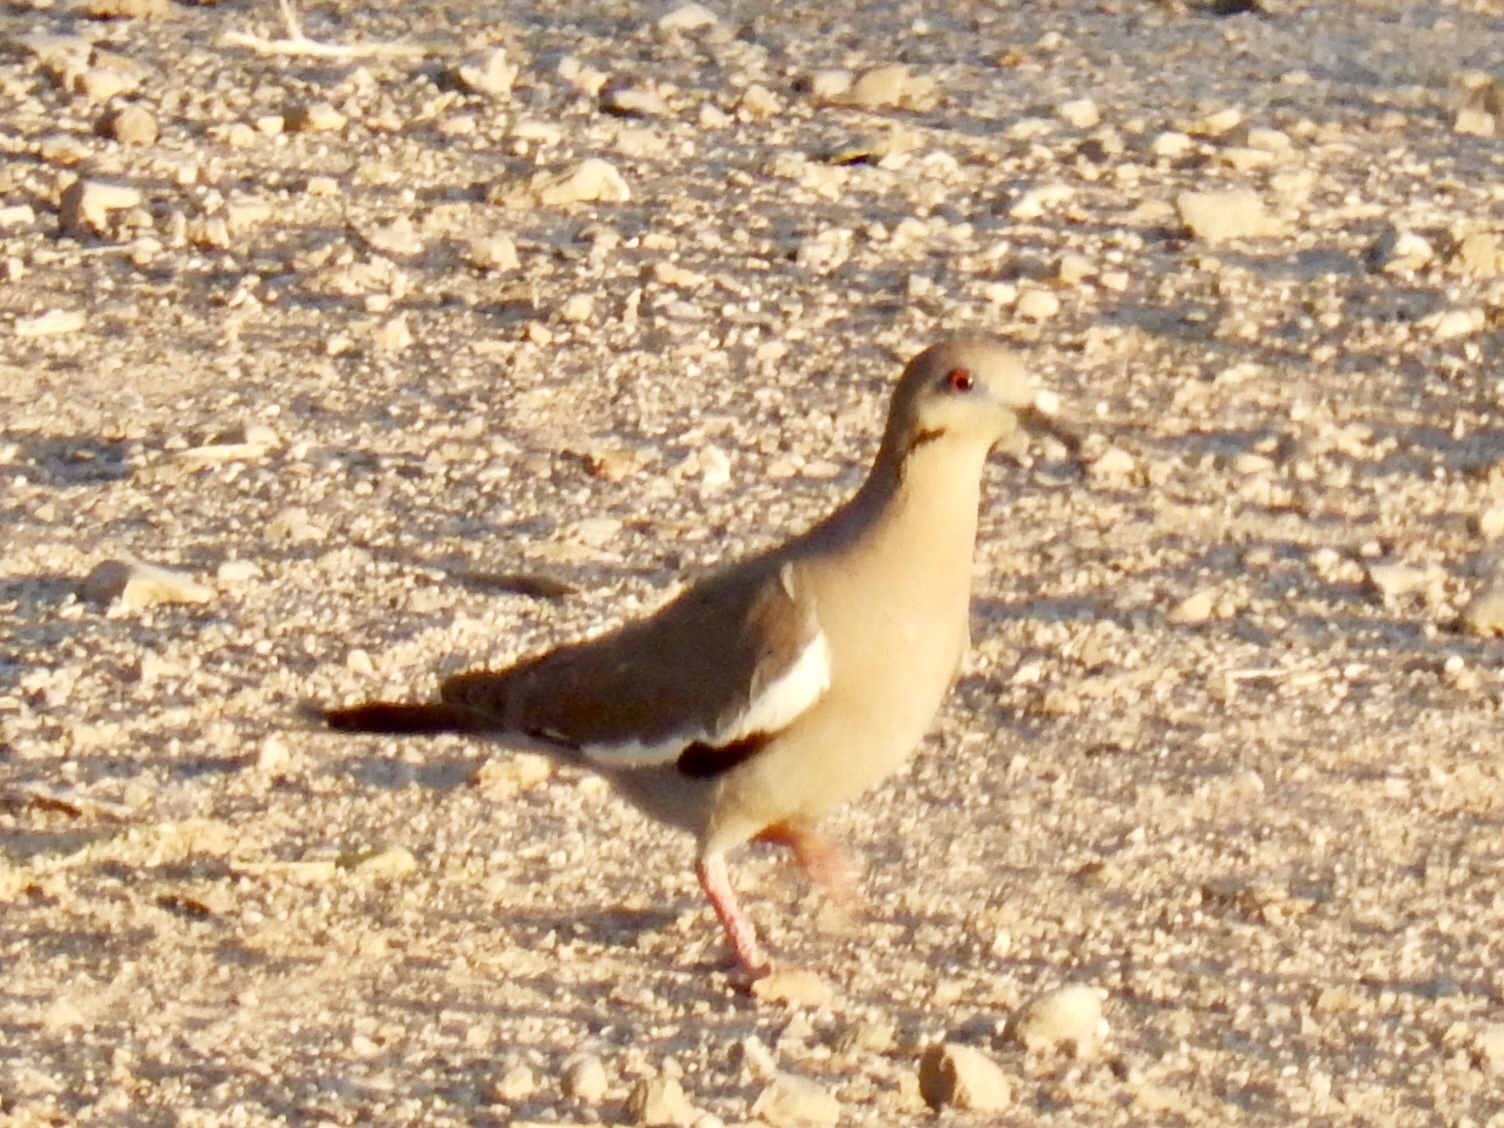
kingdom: Animalia
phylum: Chordata
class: Aves
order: Columbiformes
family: Columbidae
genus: Zenaida
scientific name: Zenaida asiatica
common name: White-winged dove
